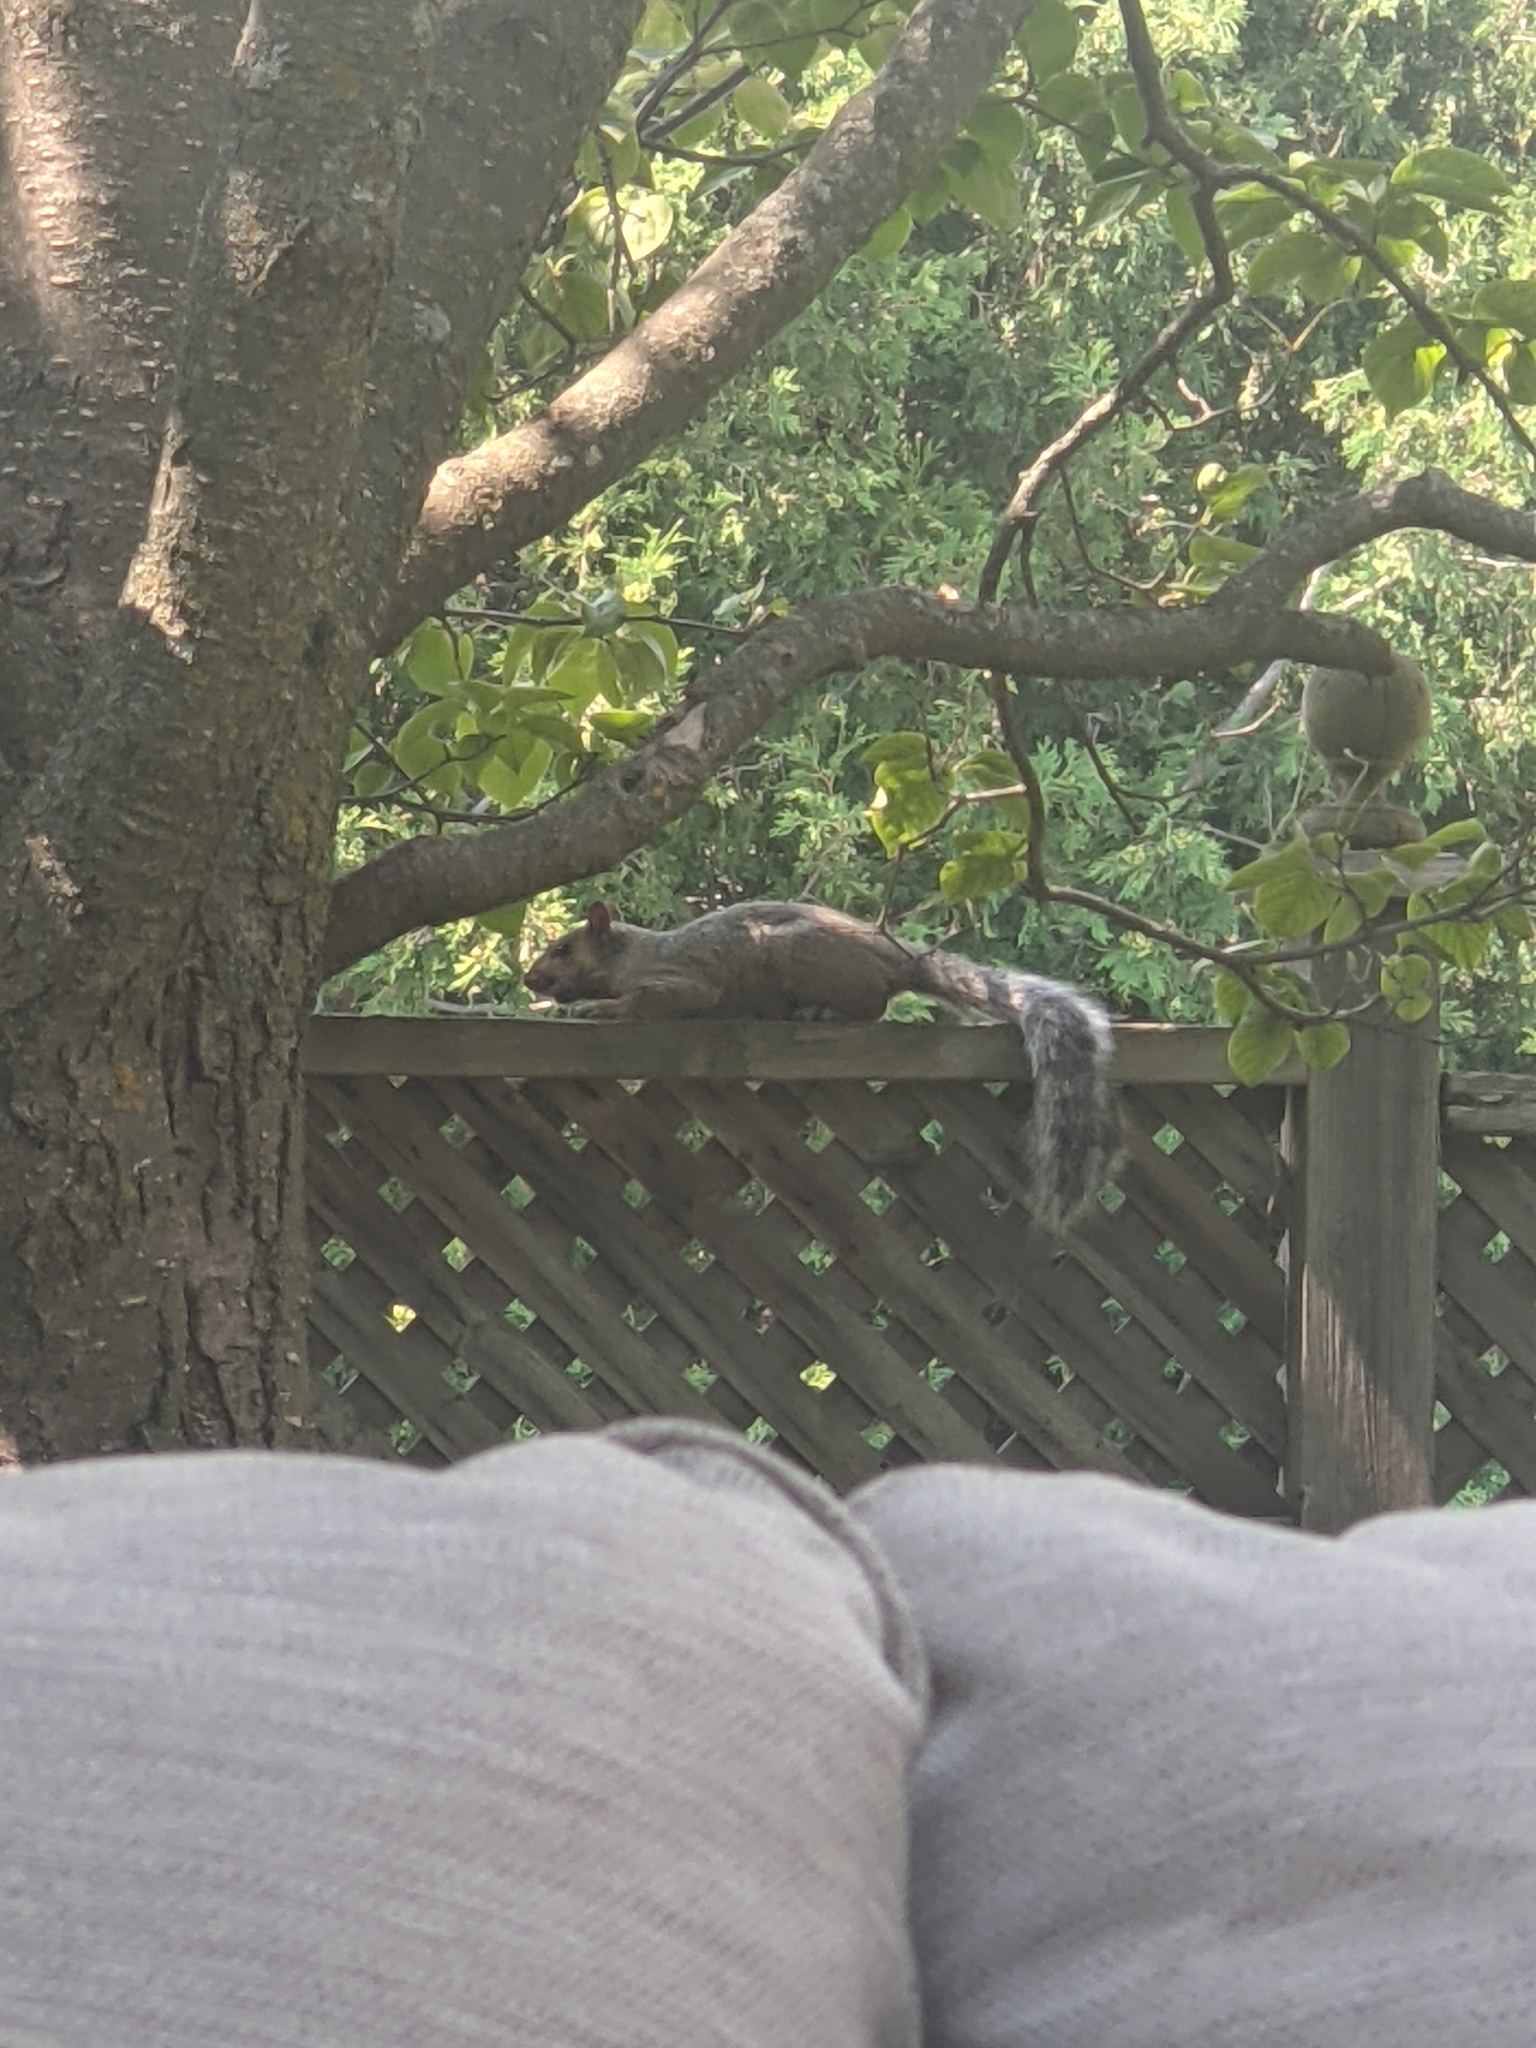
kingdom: Animalia
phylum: Chordata
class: Mammalia
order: Rodentia
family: Sciuridae
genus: Sciurus
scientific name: Sciurus carolinensis
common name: Eastern gray squirrel
